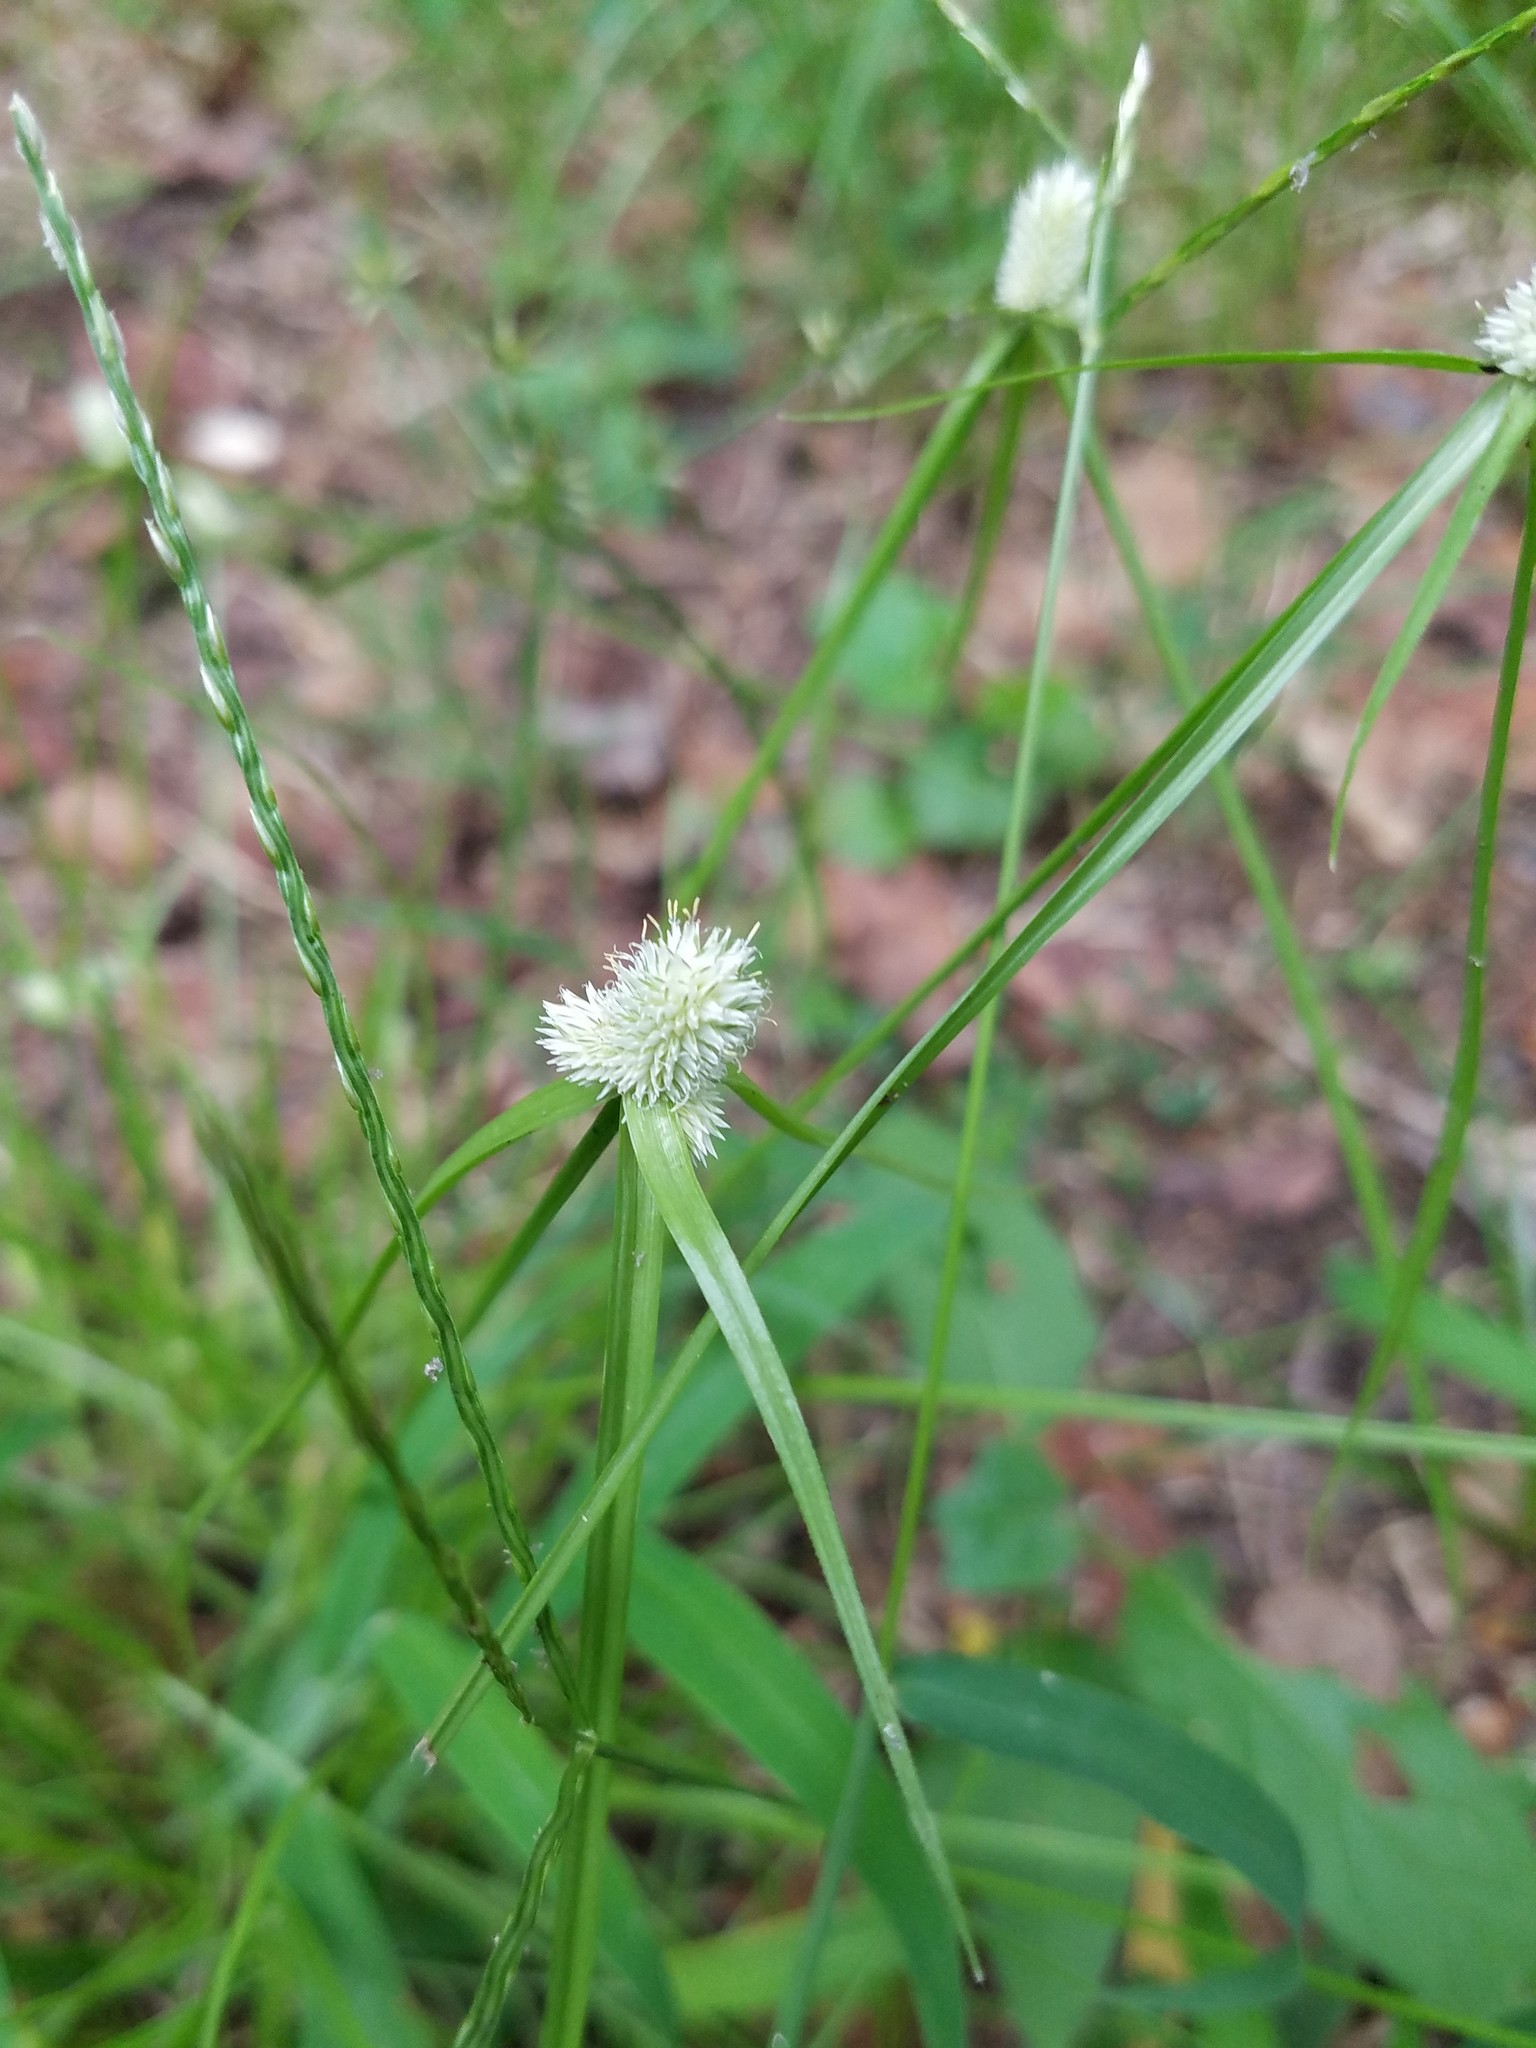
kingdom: Plantae
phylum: Tracheophyta
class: Liliopsida
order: Poales
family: Cyperaceae
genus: Cyperus
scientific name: Cyperus sesquiflorus
